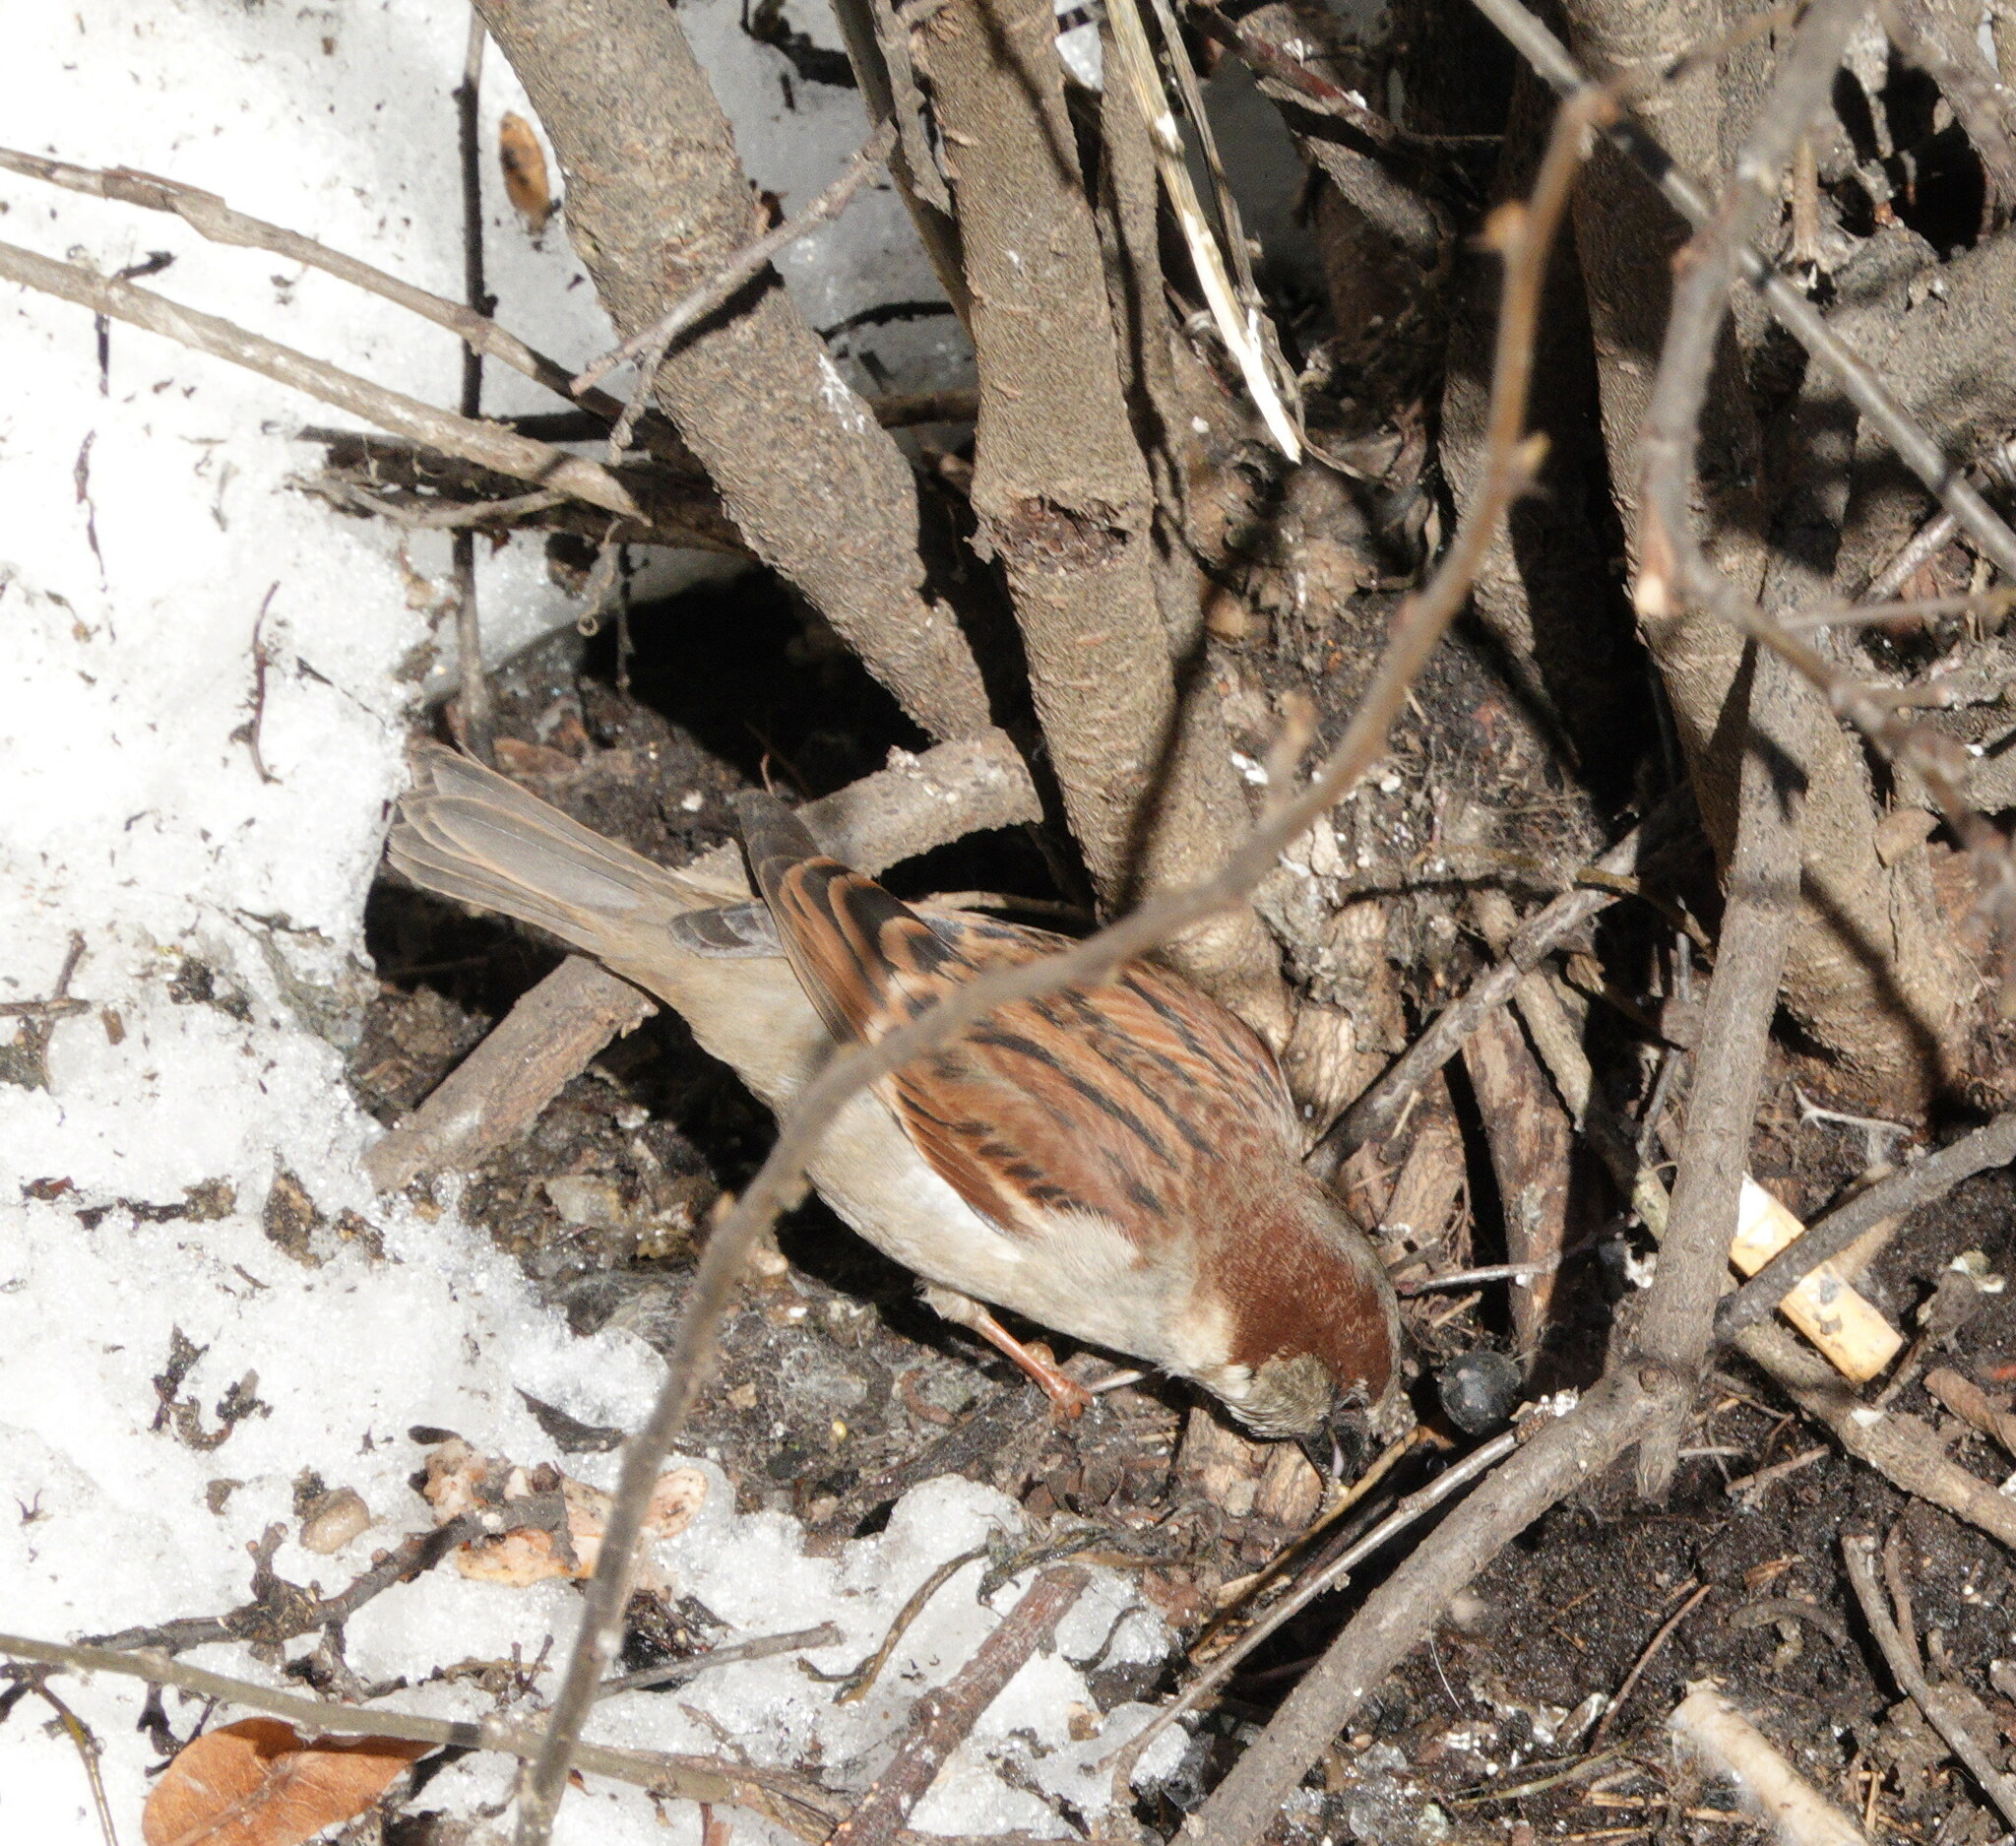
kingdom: Animalia
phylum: Chordata
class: Aves
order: Passeriformes
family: Passeridae
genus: Passer
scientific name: Passer domesticus
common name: House sparrow
